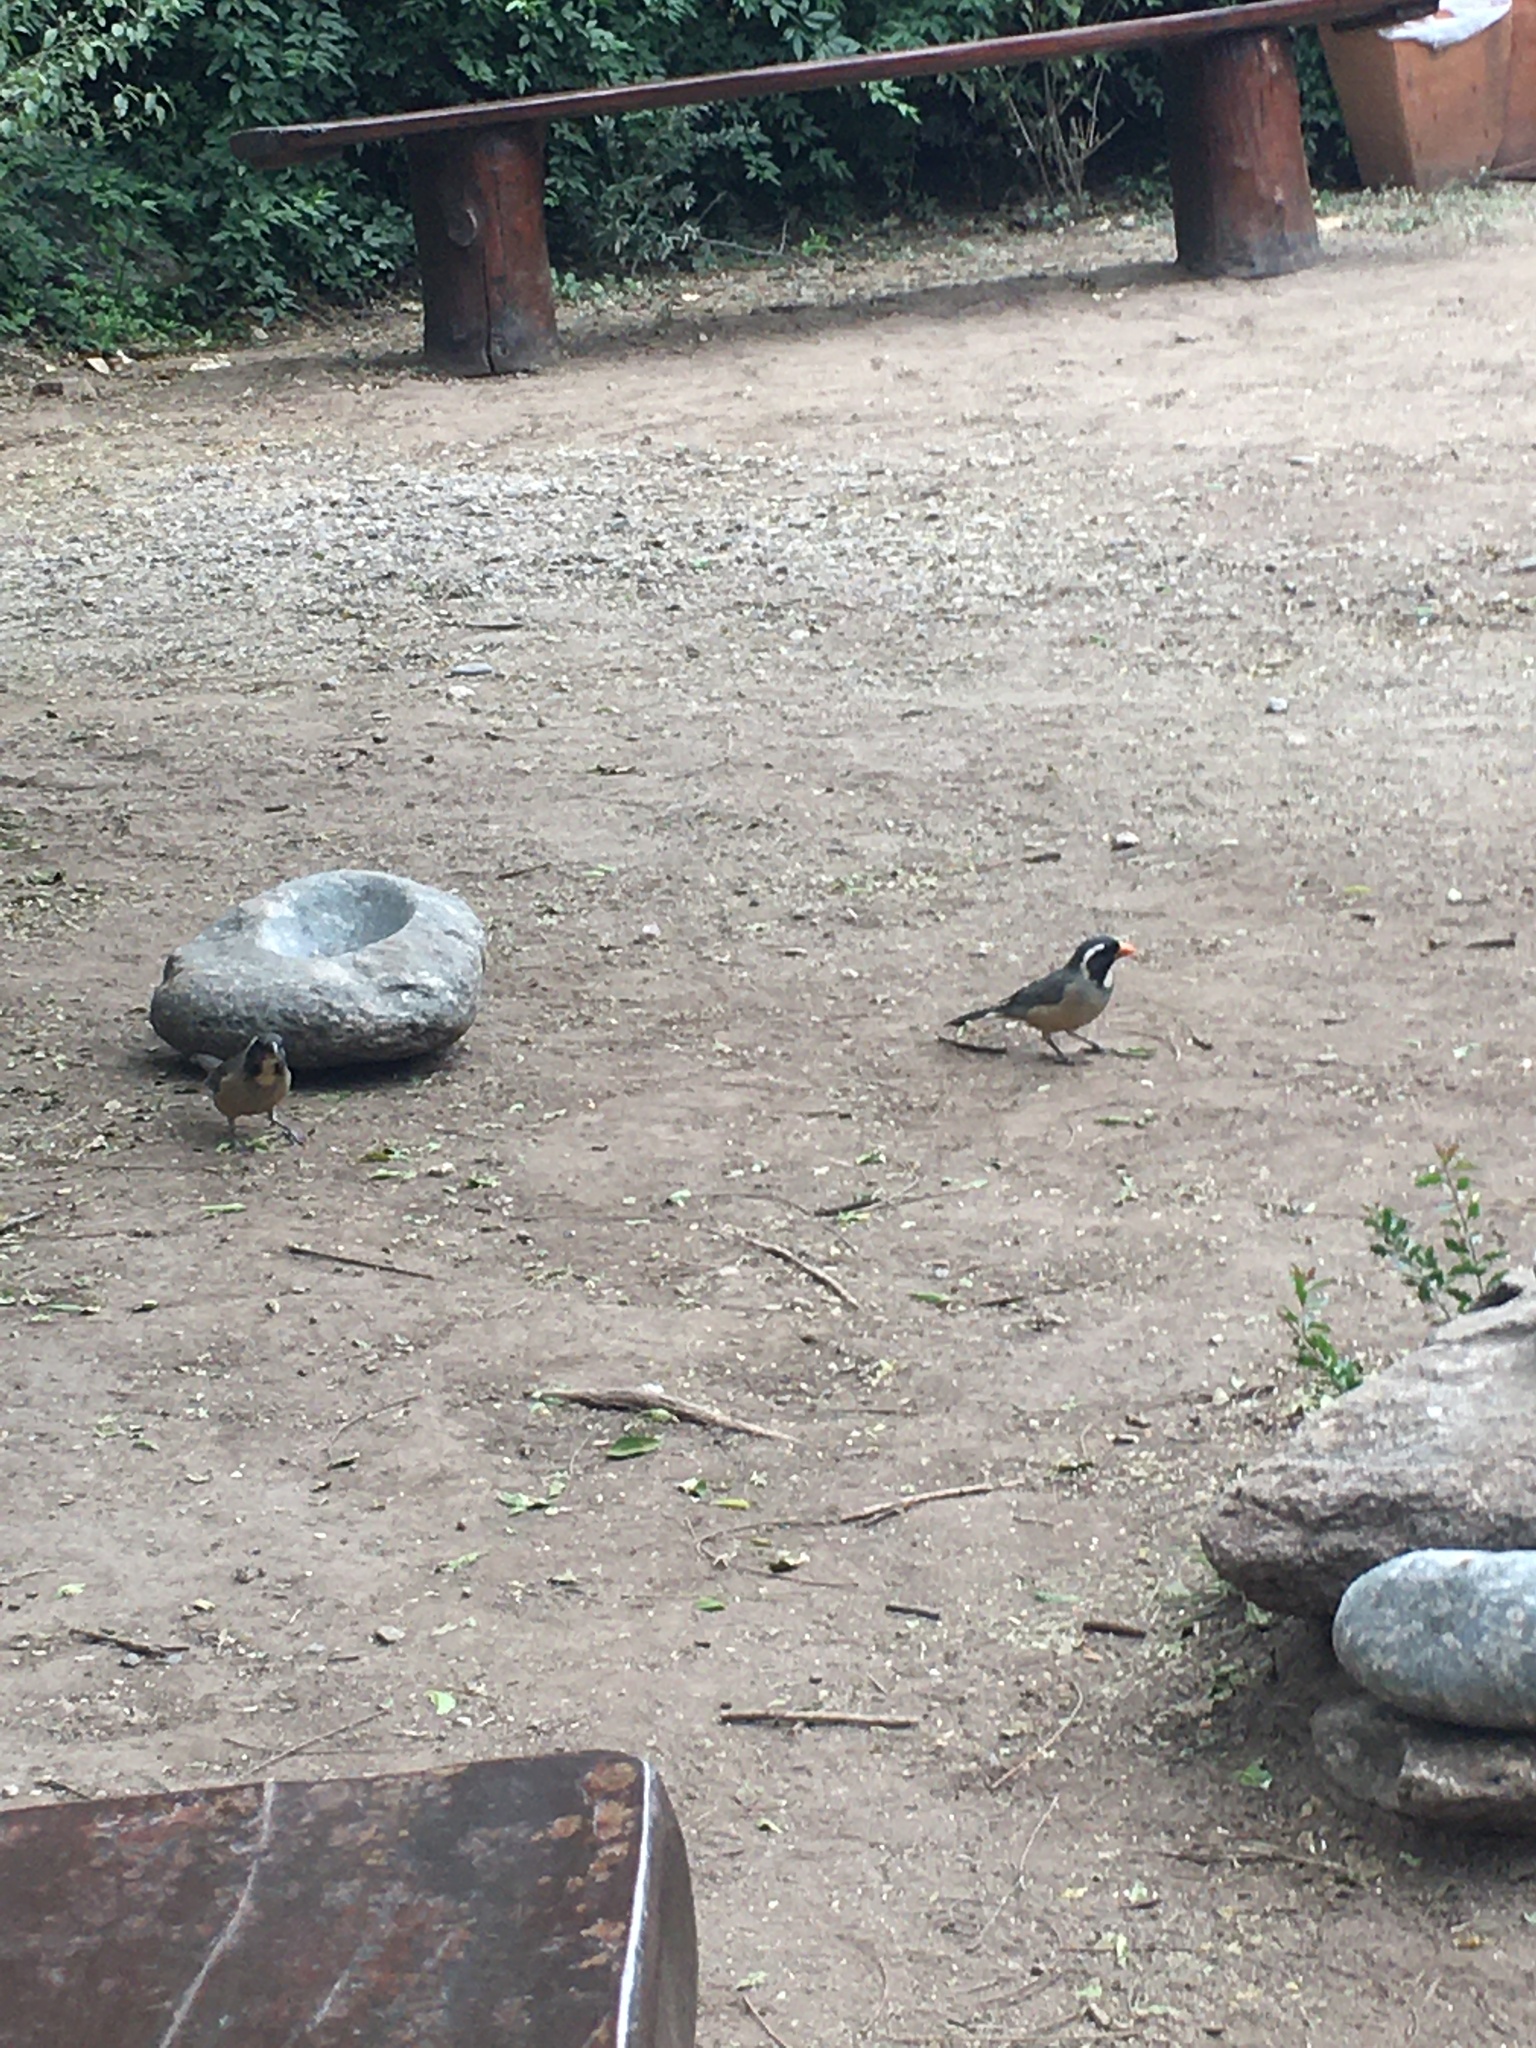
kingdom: Animalia
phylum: Chordata
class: Aves
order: Passeriformes
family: Thraupidae
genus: Saltator
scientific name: Saltator aurantiirostris
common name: Golden-billed saltator
